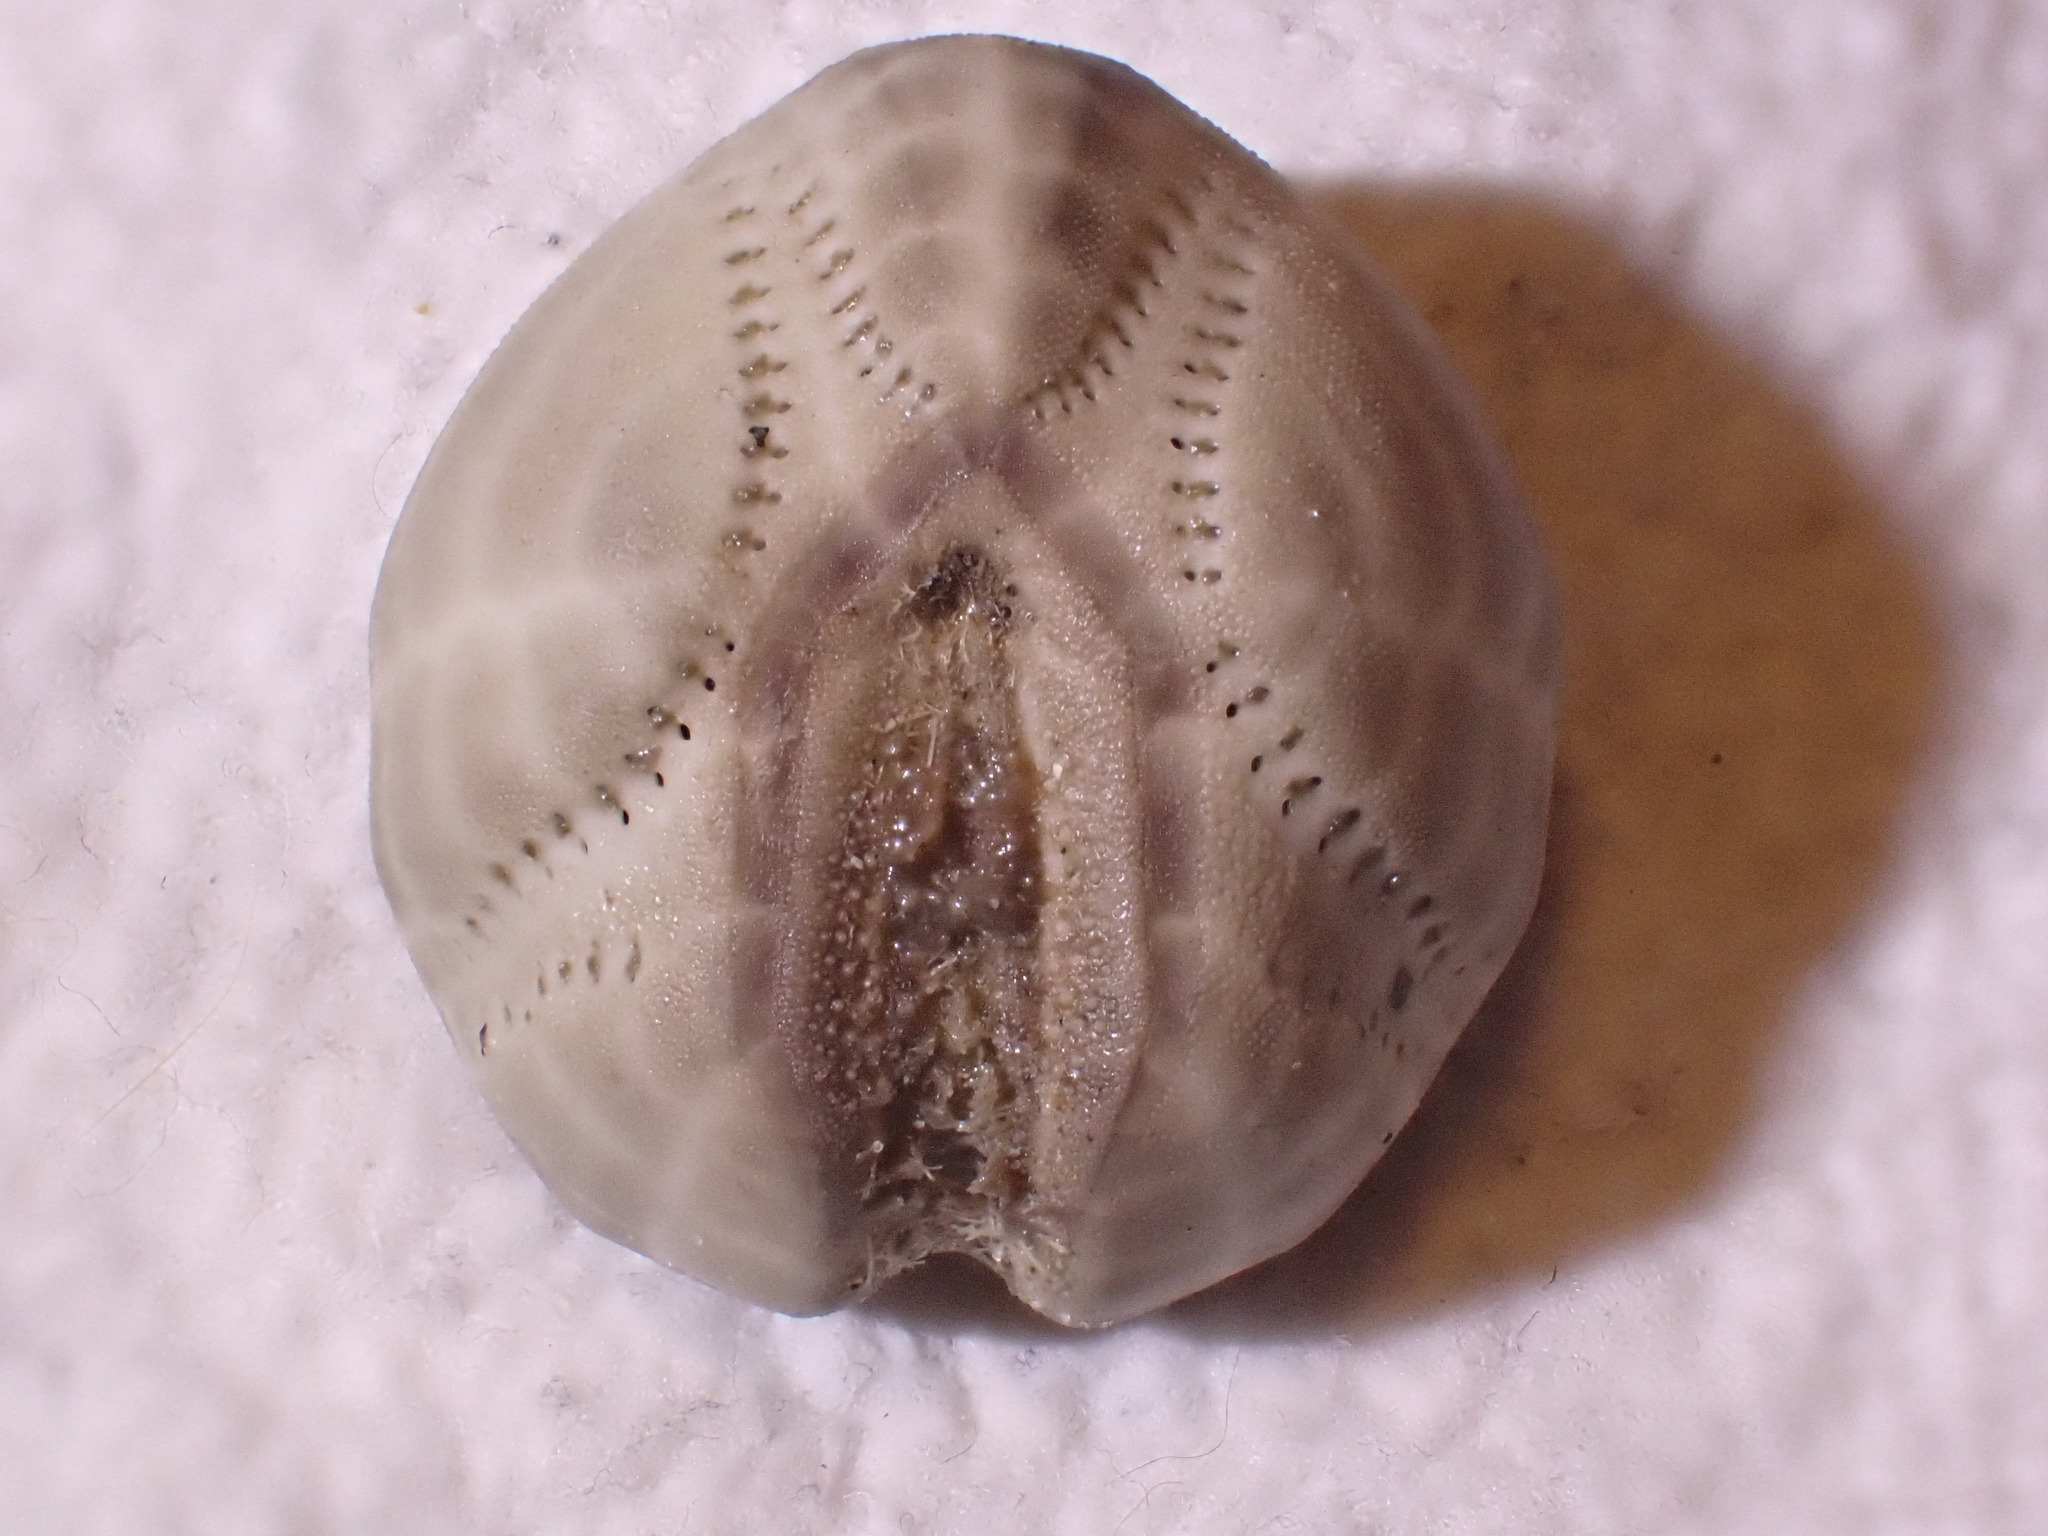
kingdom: Animalia
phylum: Echinodermata
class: Echinoidea
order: Spatangoida
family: Loveniidae
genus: Echinocardium
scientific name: Echinocardium cordatum
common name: Heart-urchin
